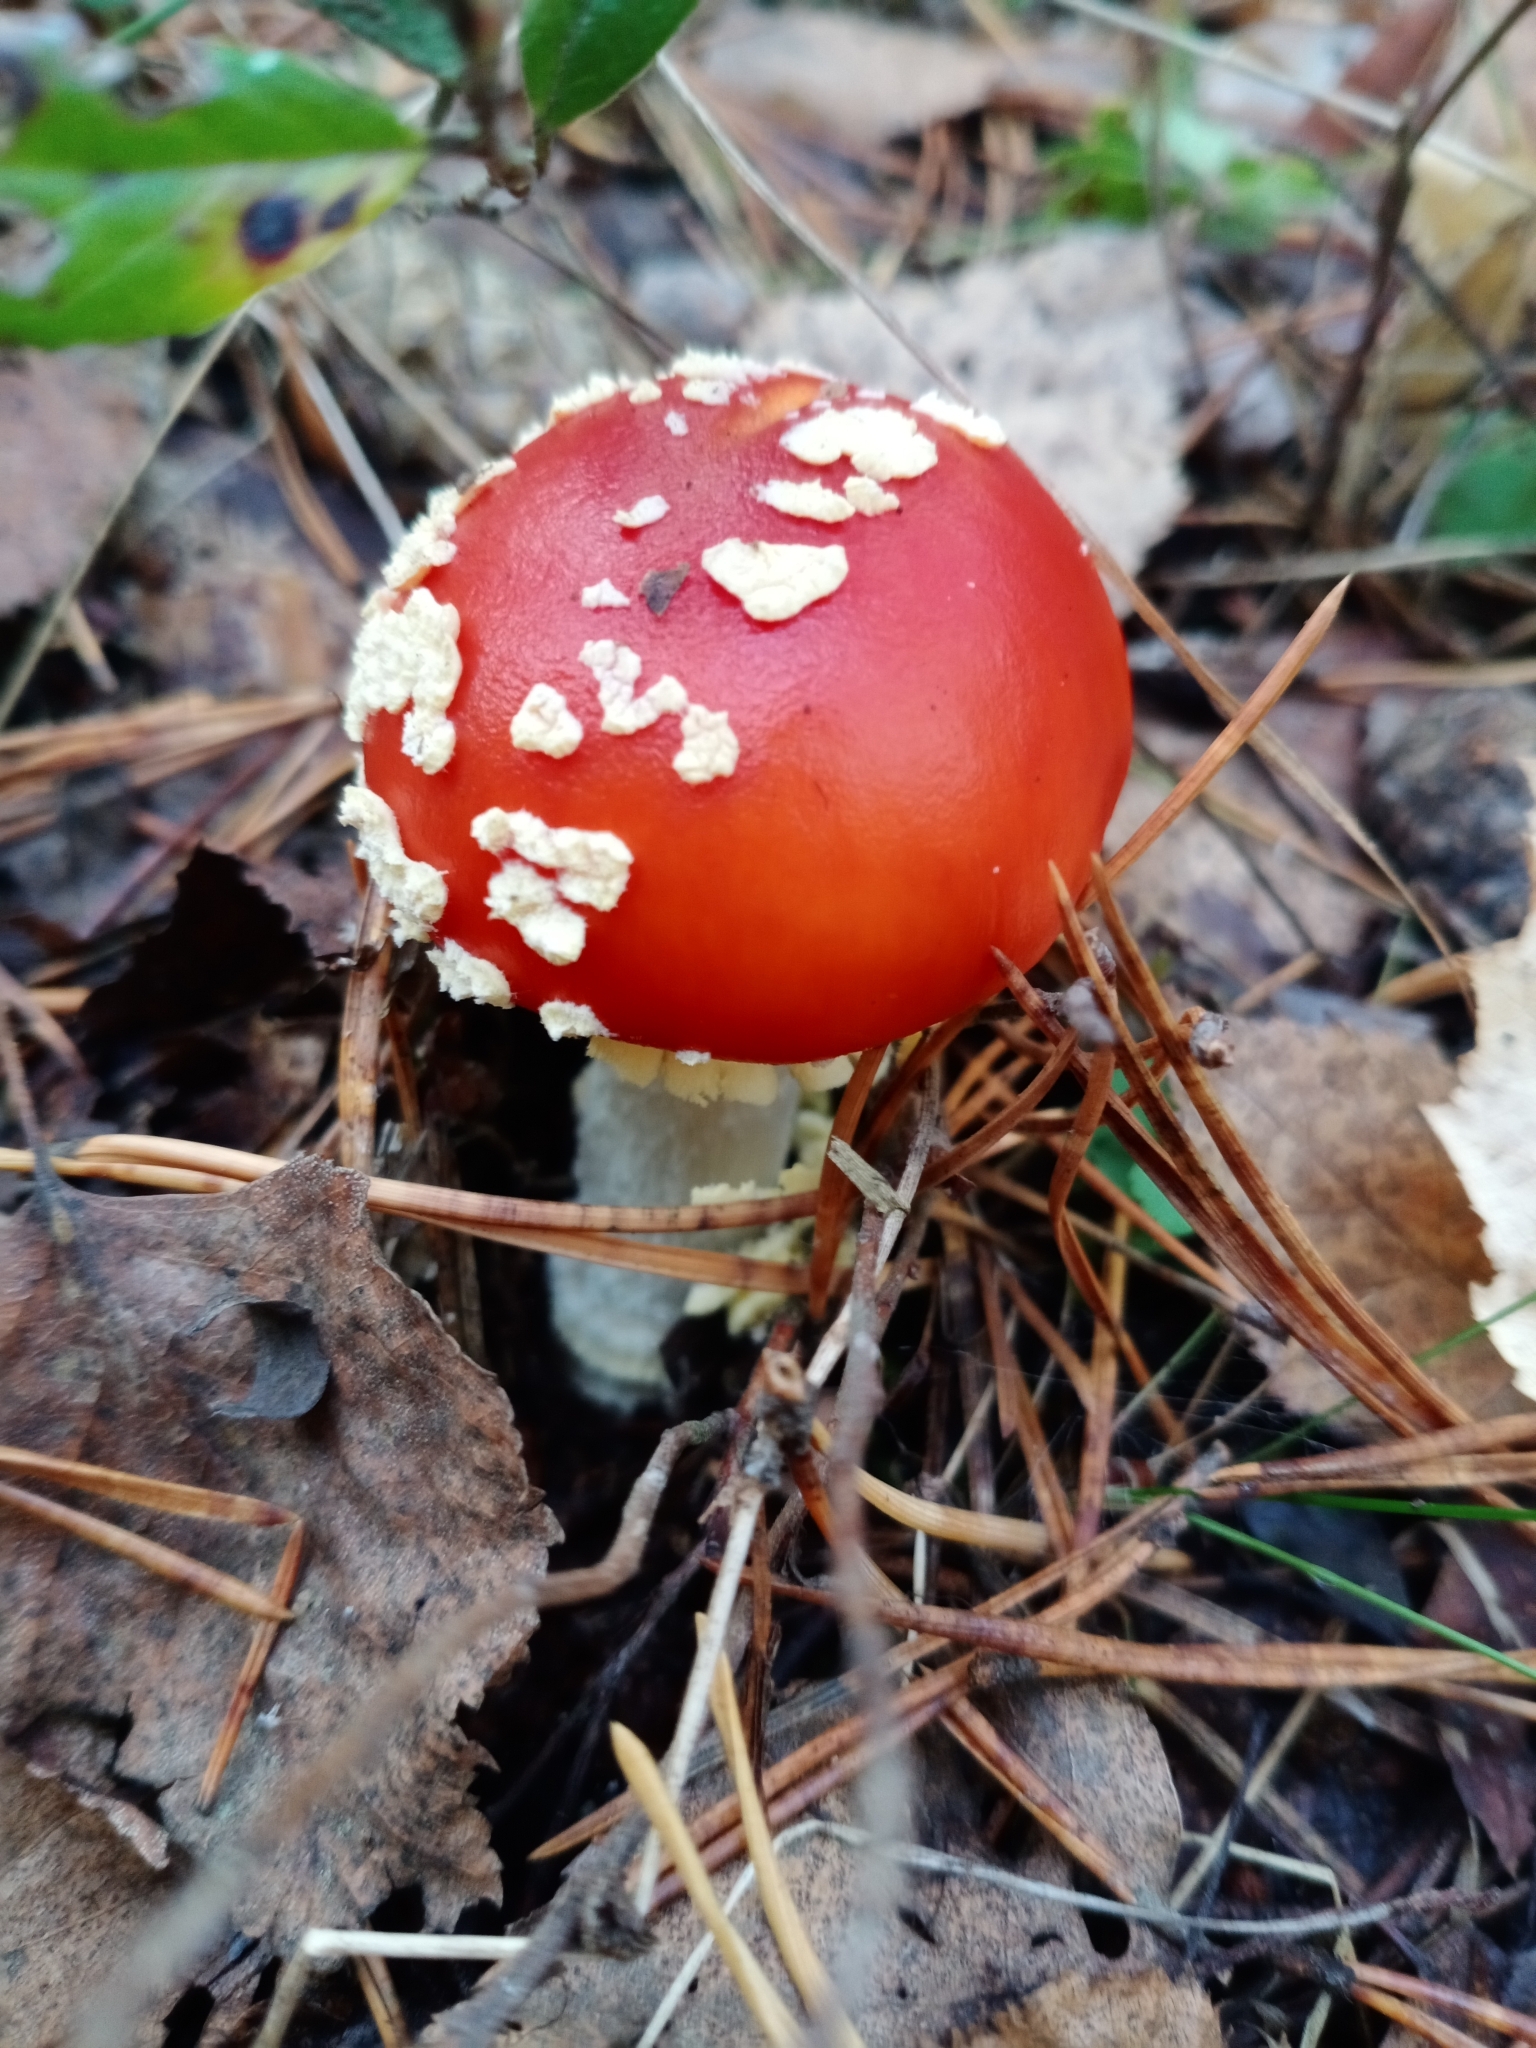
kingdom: Fungi
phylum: Basidiomycota
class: Agaricomycetes
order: Agaricales
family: Amanitaceae
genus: Amanita
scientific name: Amanita muscaria
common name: Fly agaric
